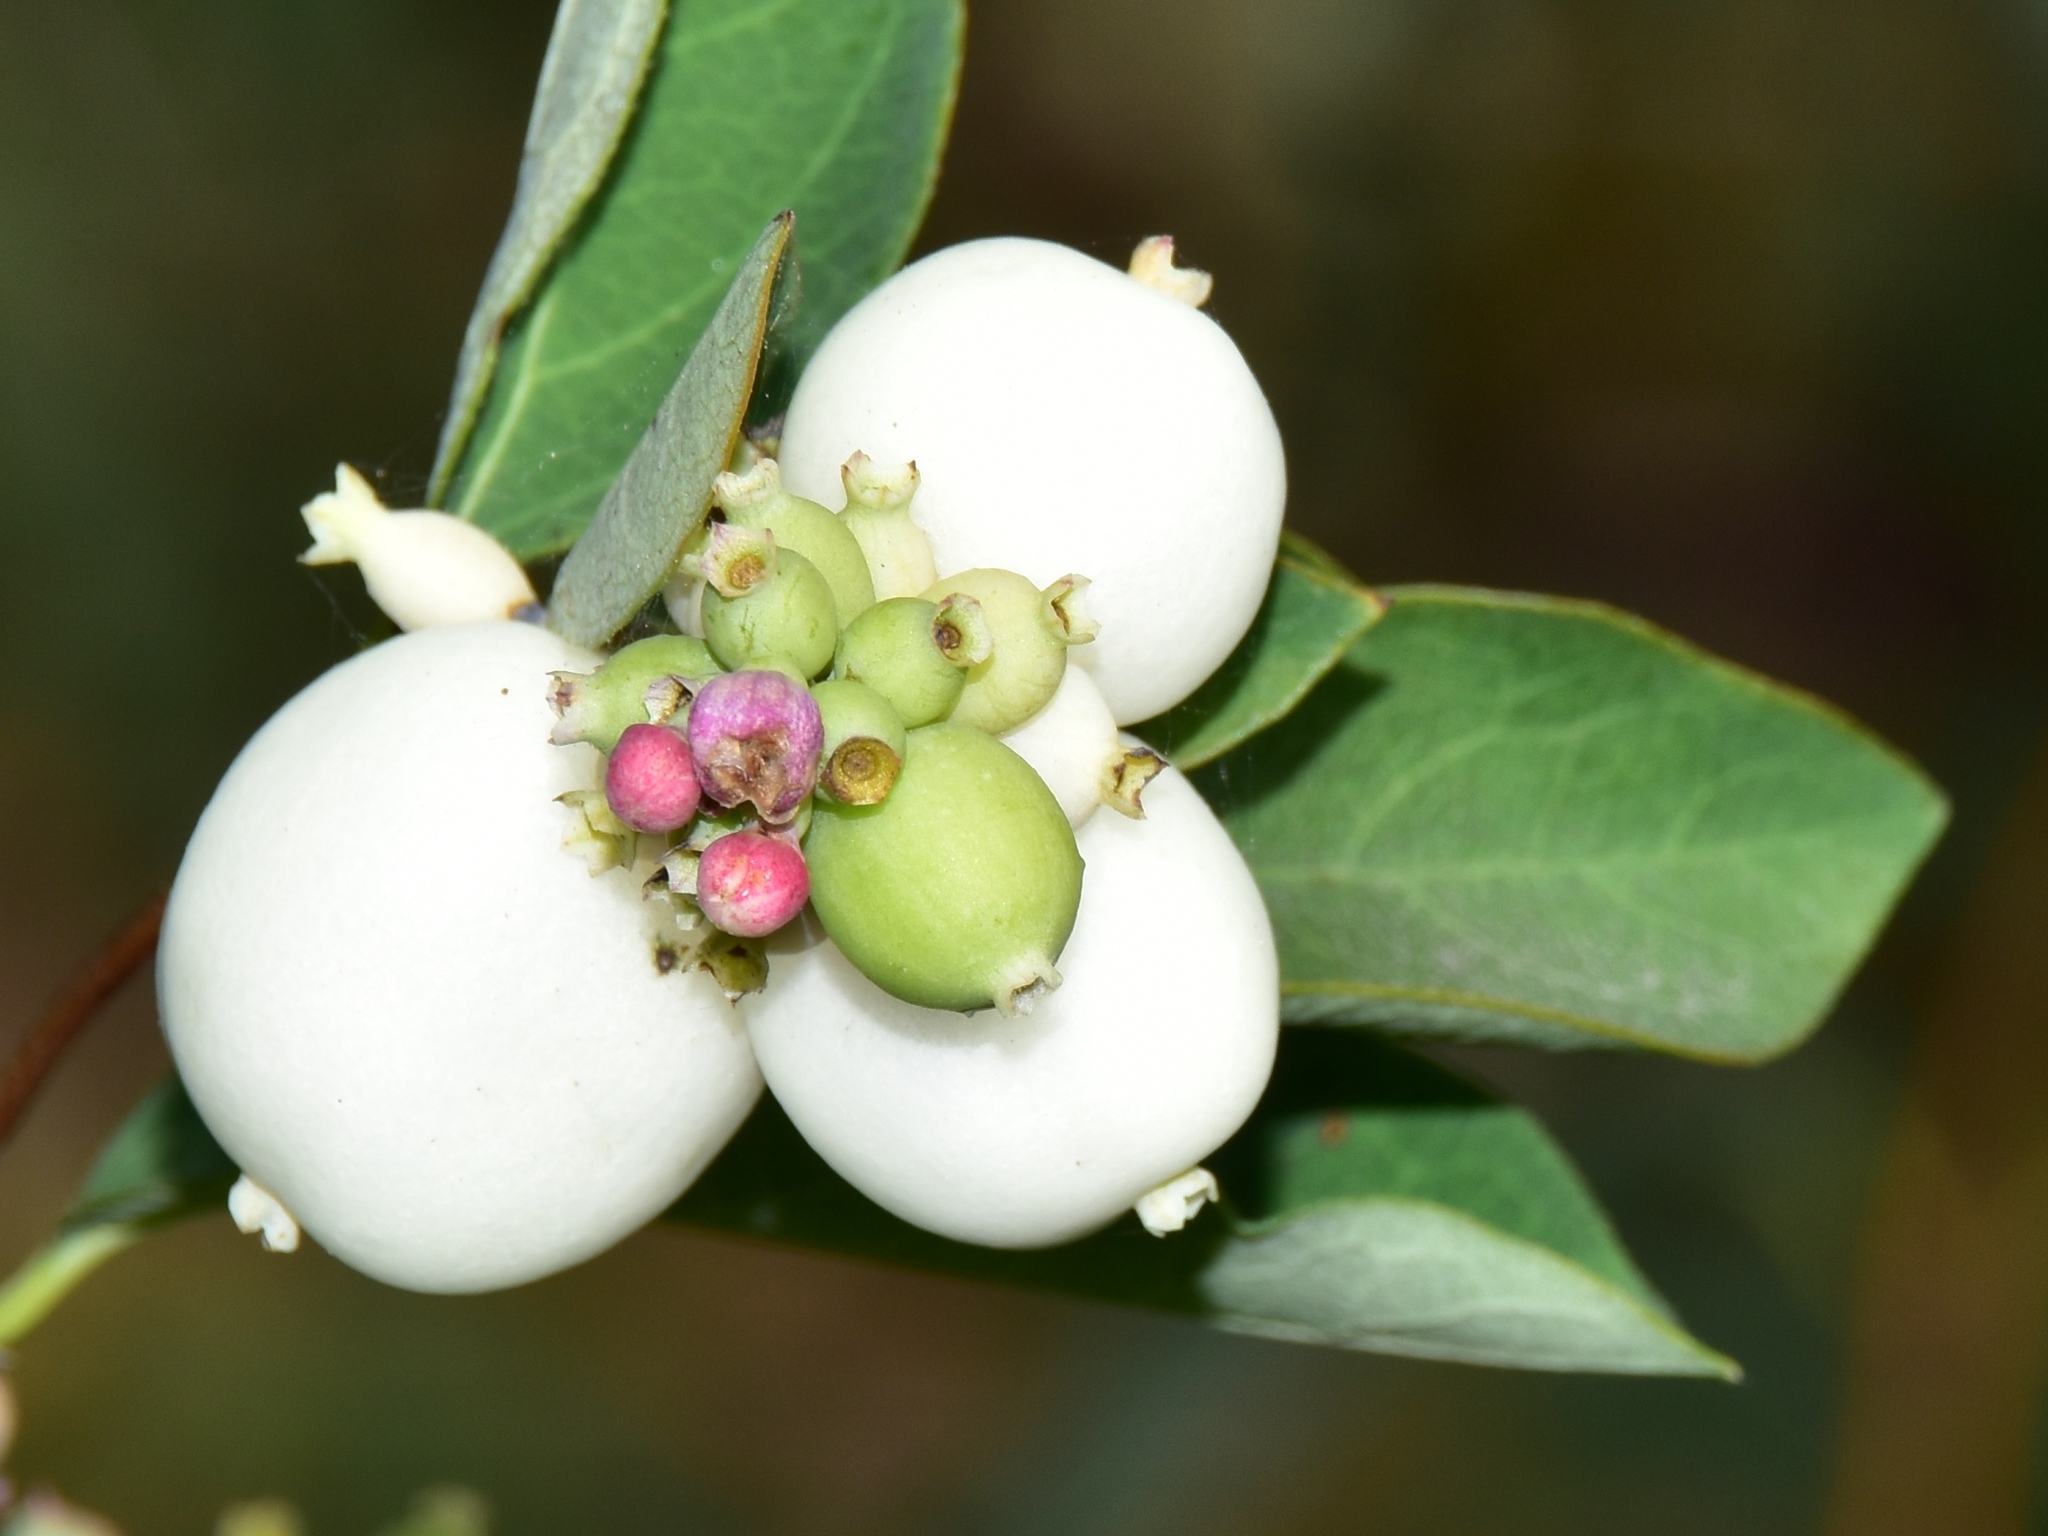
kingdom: Plantae
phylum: Tracheophyta
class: Magnoliopsida
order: Dipsacales
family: Caprifoliaceae
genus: Symphoricarpos
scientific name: Symphoricarpos albus
